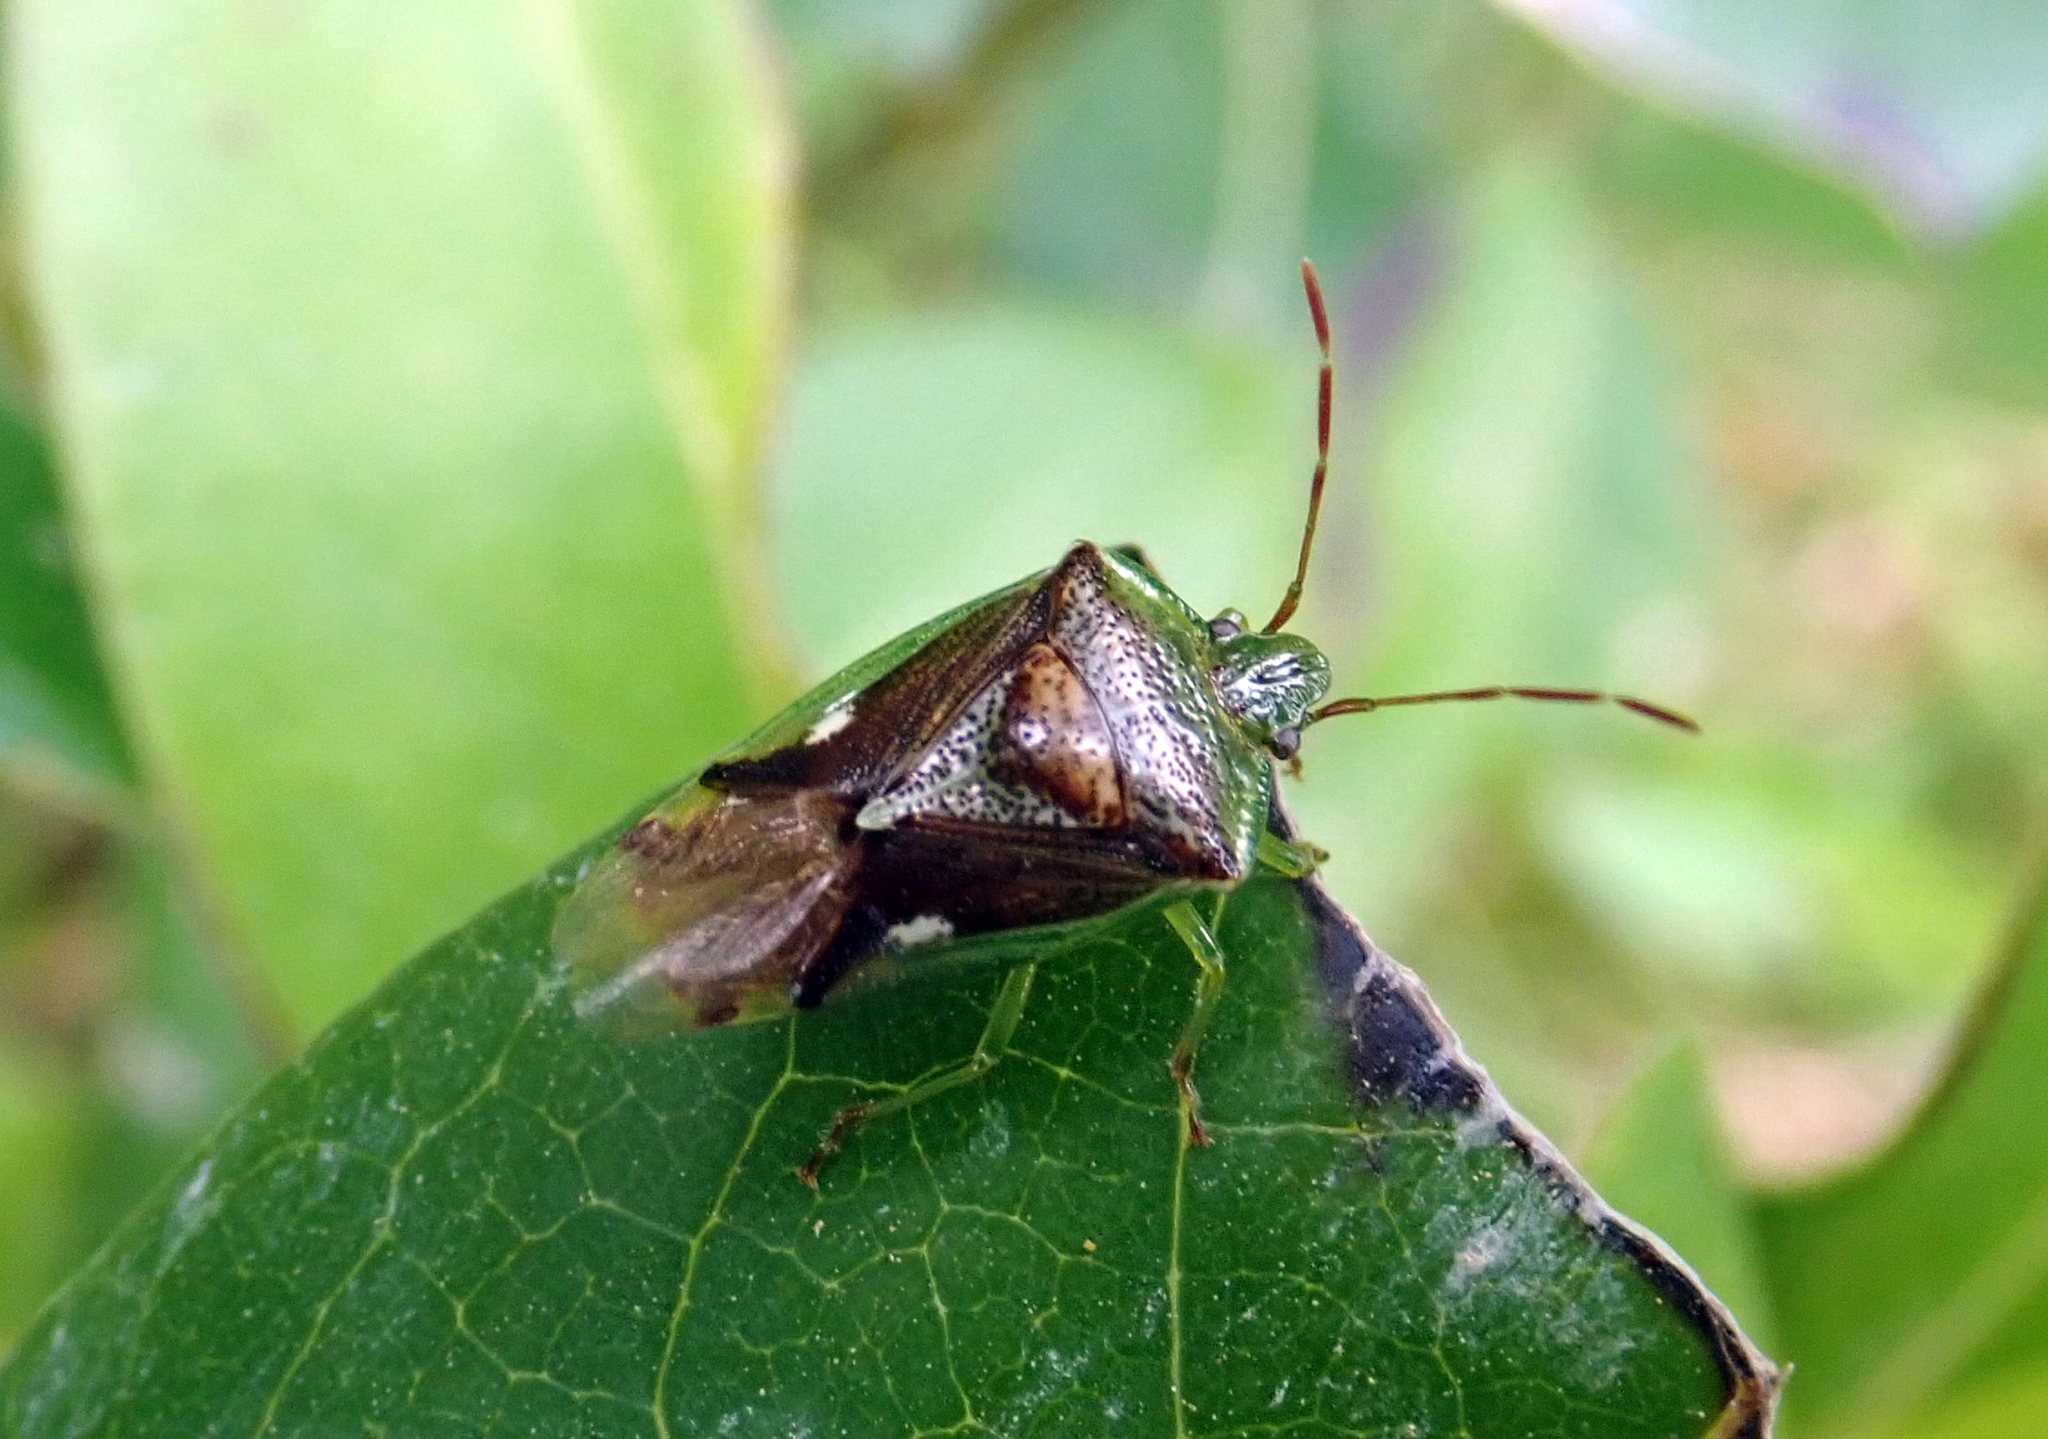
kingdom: Animalia
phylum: Arthropoda
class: Insecta
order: Hemiptera
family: Acanthosomatidae
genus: Oncacontias
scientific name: Oncacontias vittatus
